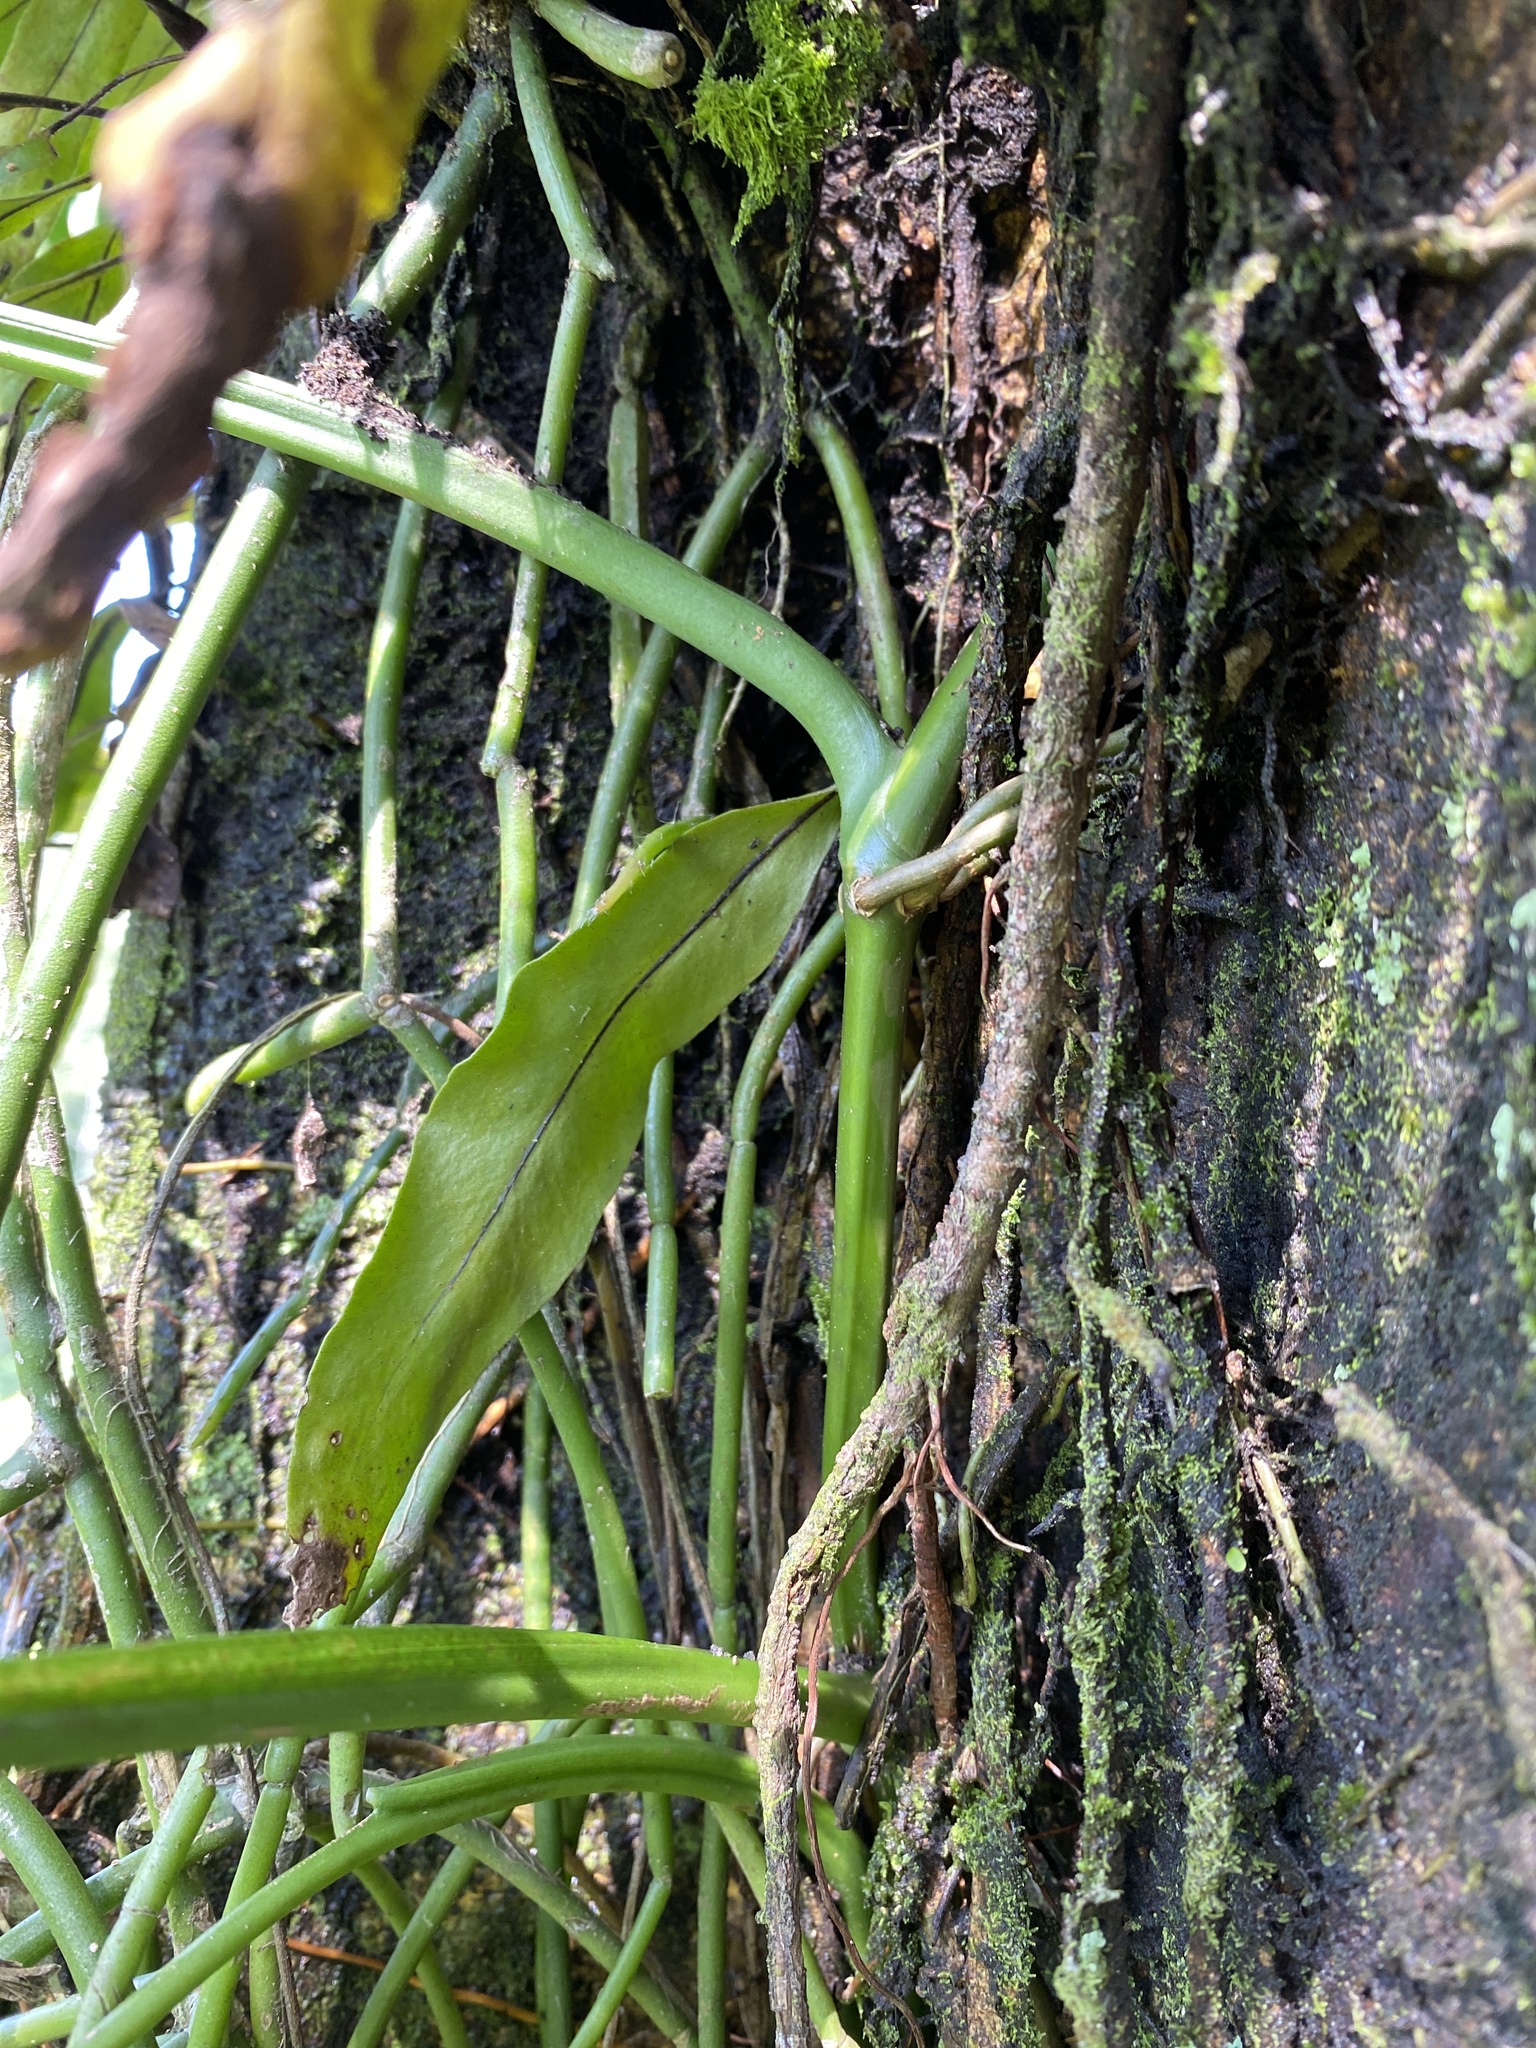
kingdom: Plantae
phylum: Tracheophyta
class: Magnoliopsida
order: Caryophyllales
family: Cactaceae
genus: Rhipsalis
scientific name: Rhipsalis baccifera
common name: Mistletoe cactus
